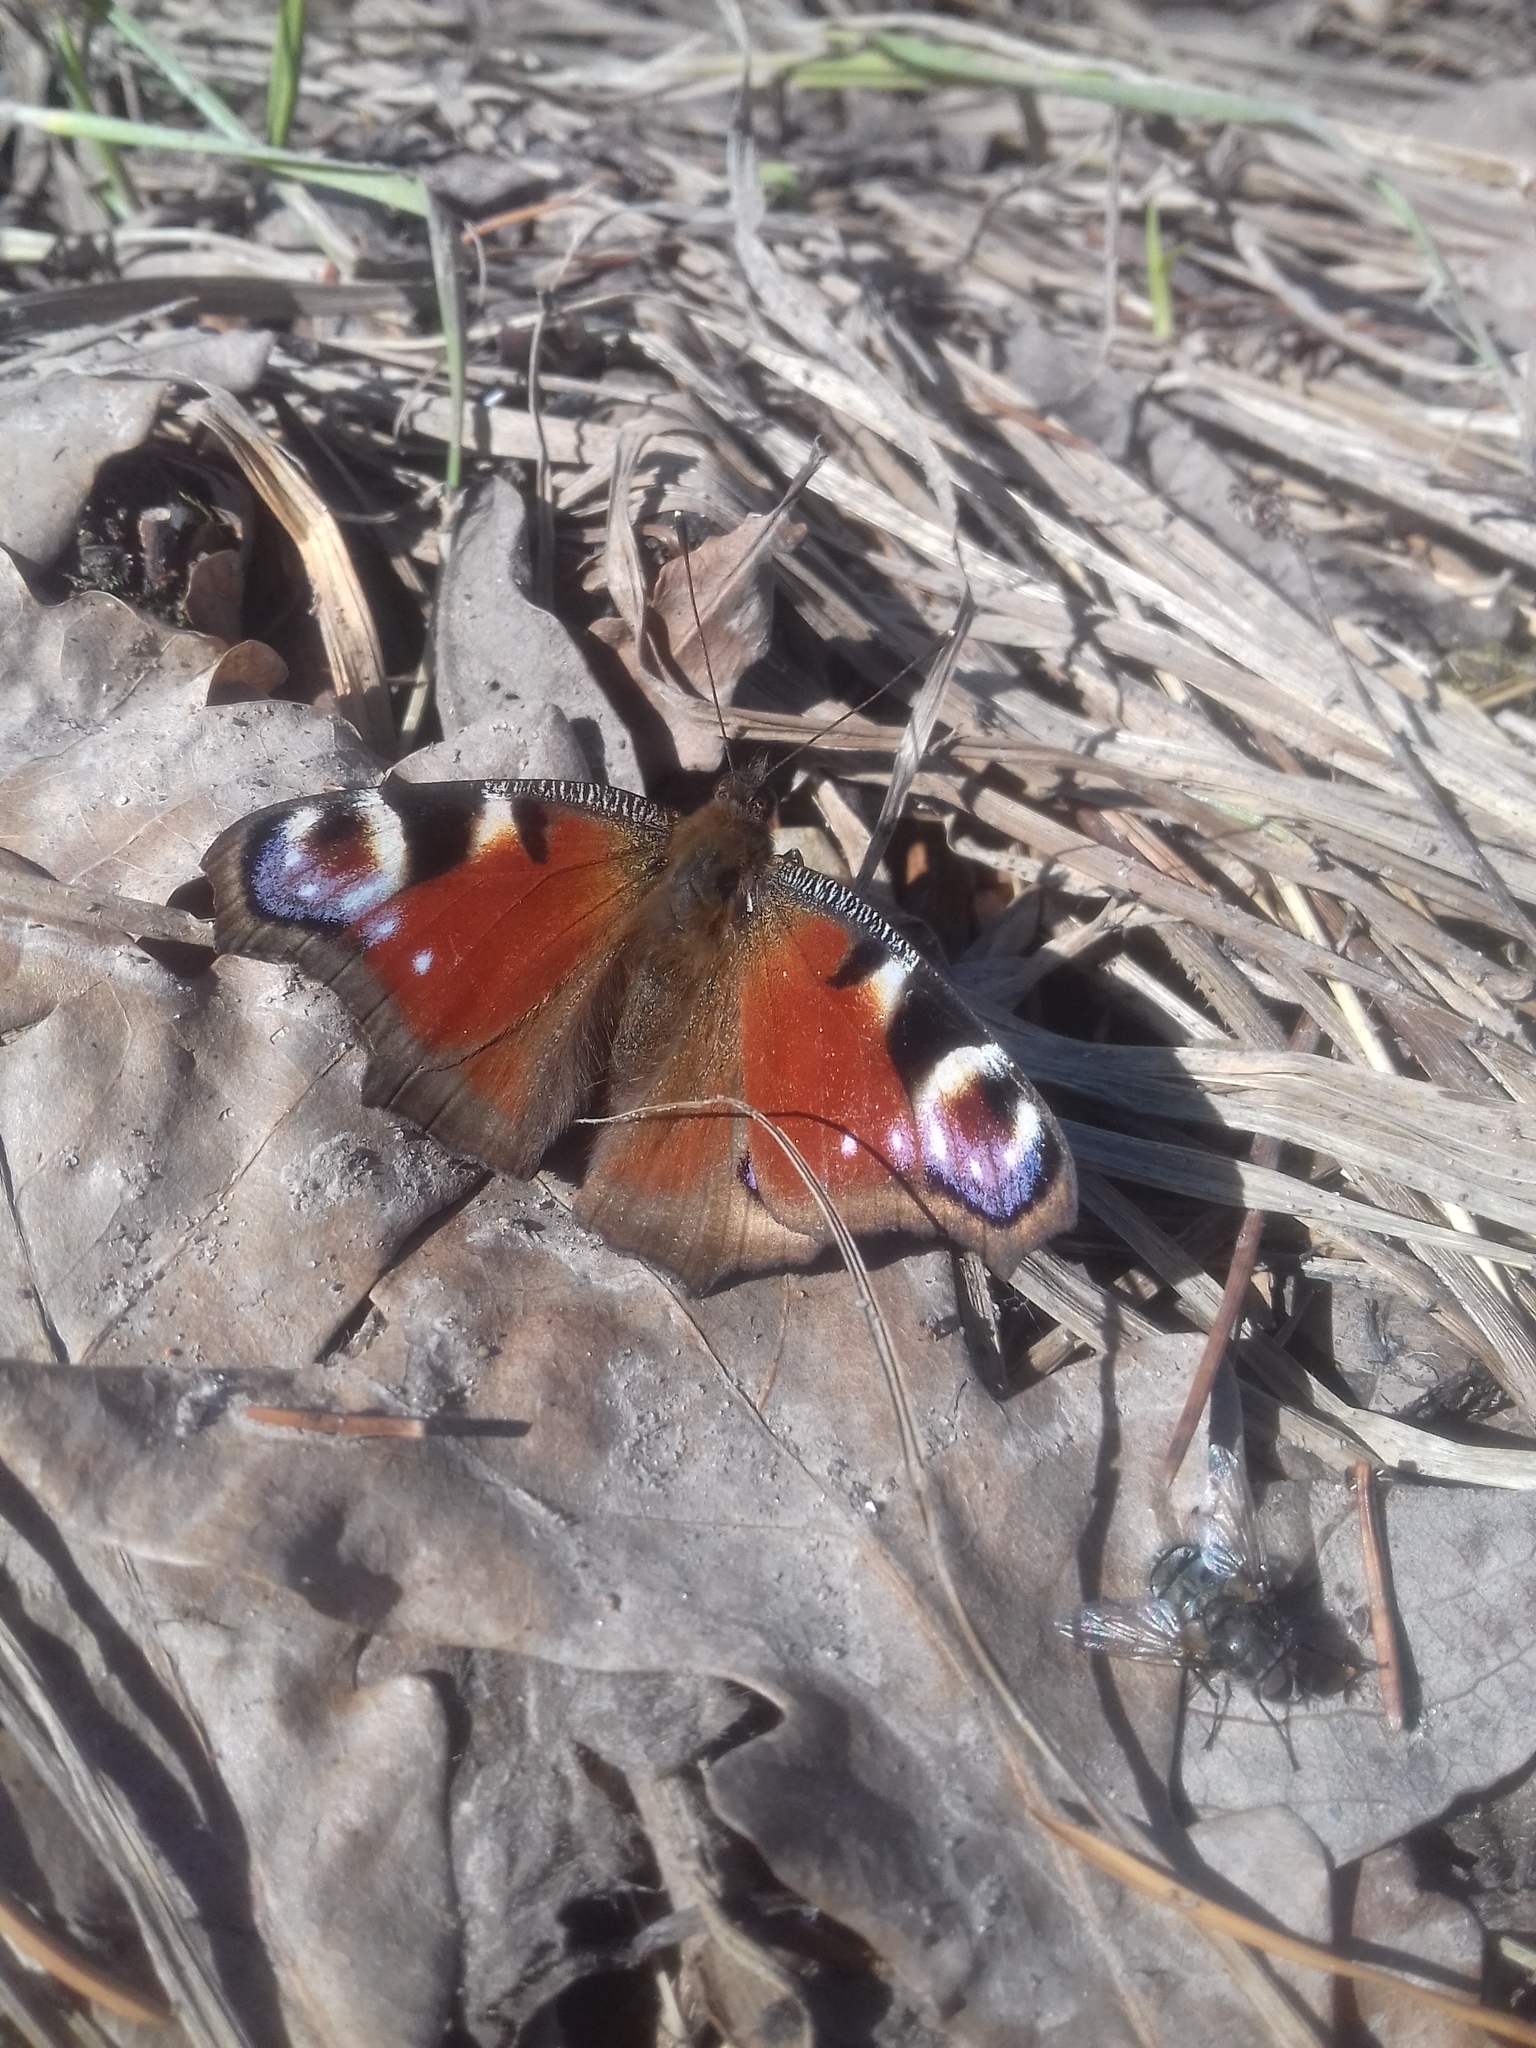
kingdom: Animalia
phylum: Arthropoda
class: Insecta
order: Lepidoptera
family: Nymphalidae
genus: Aglais
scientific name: Aglais io
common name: Peacock
